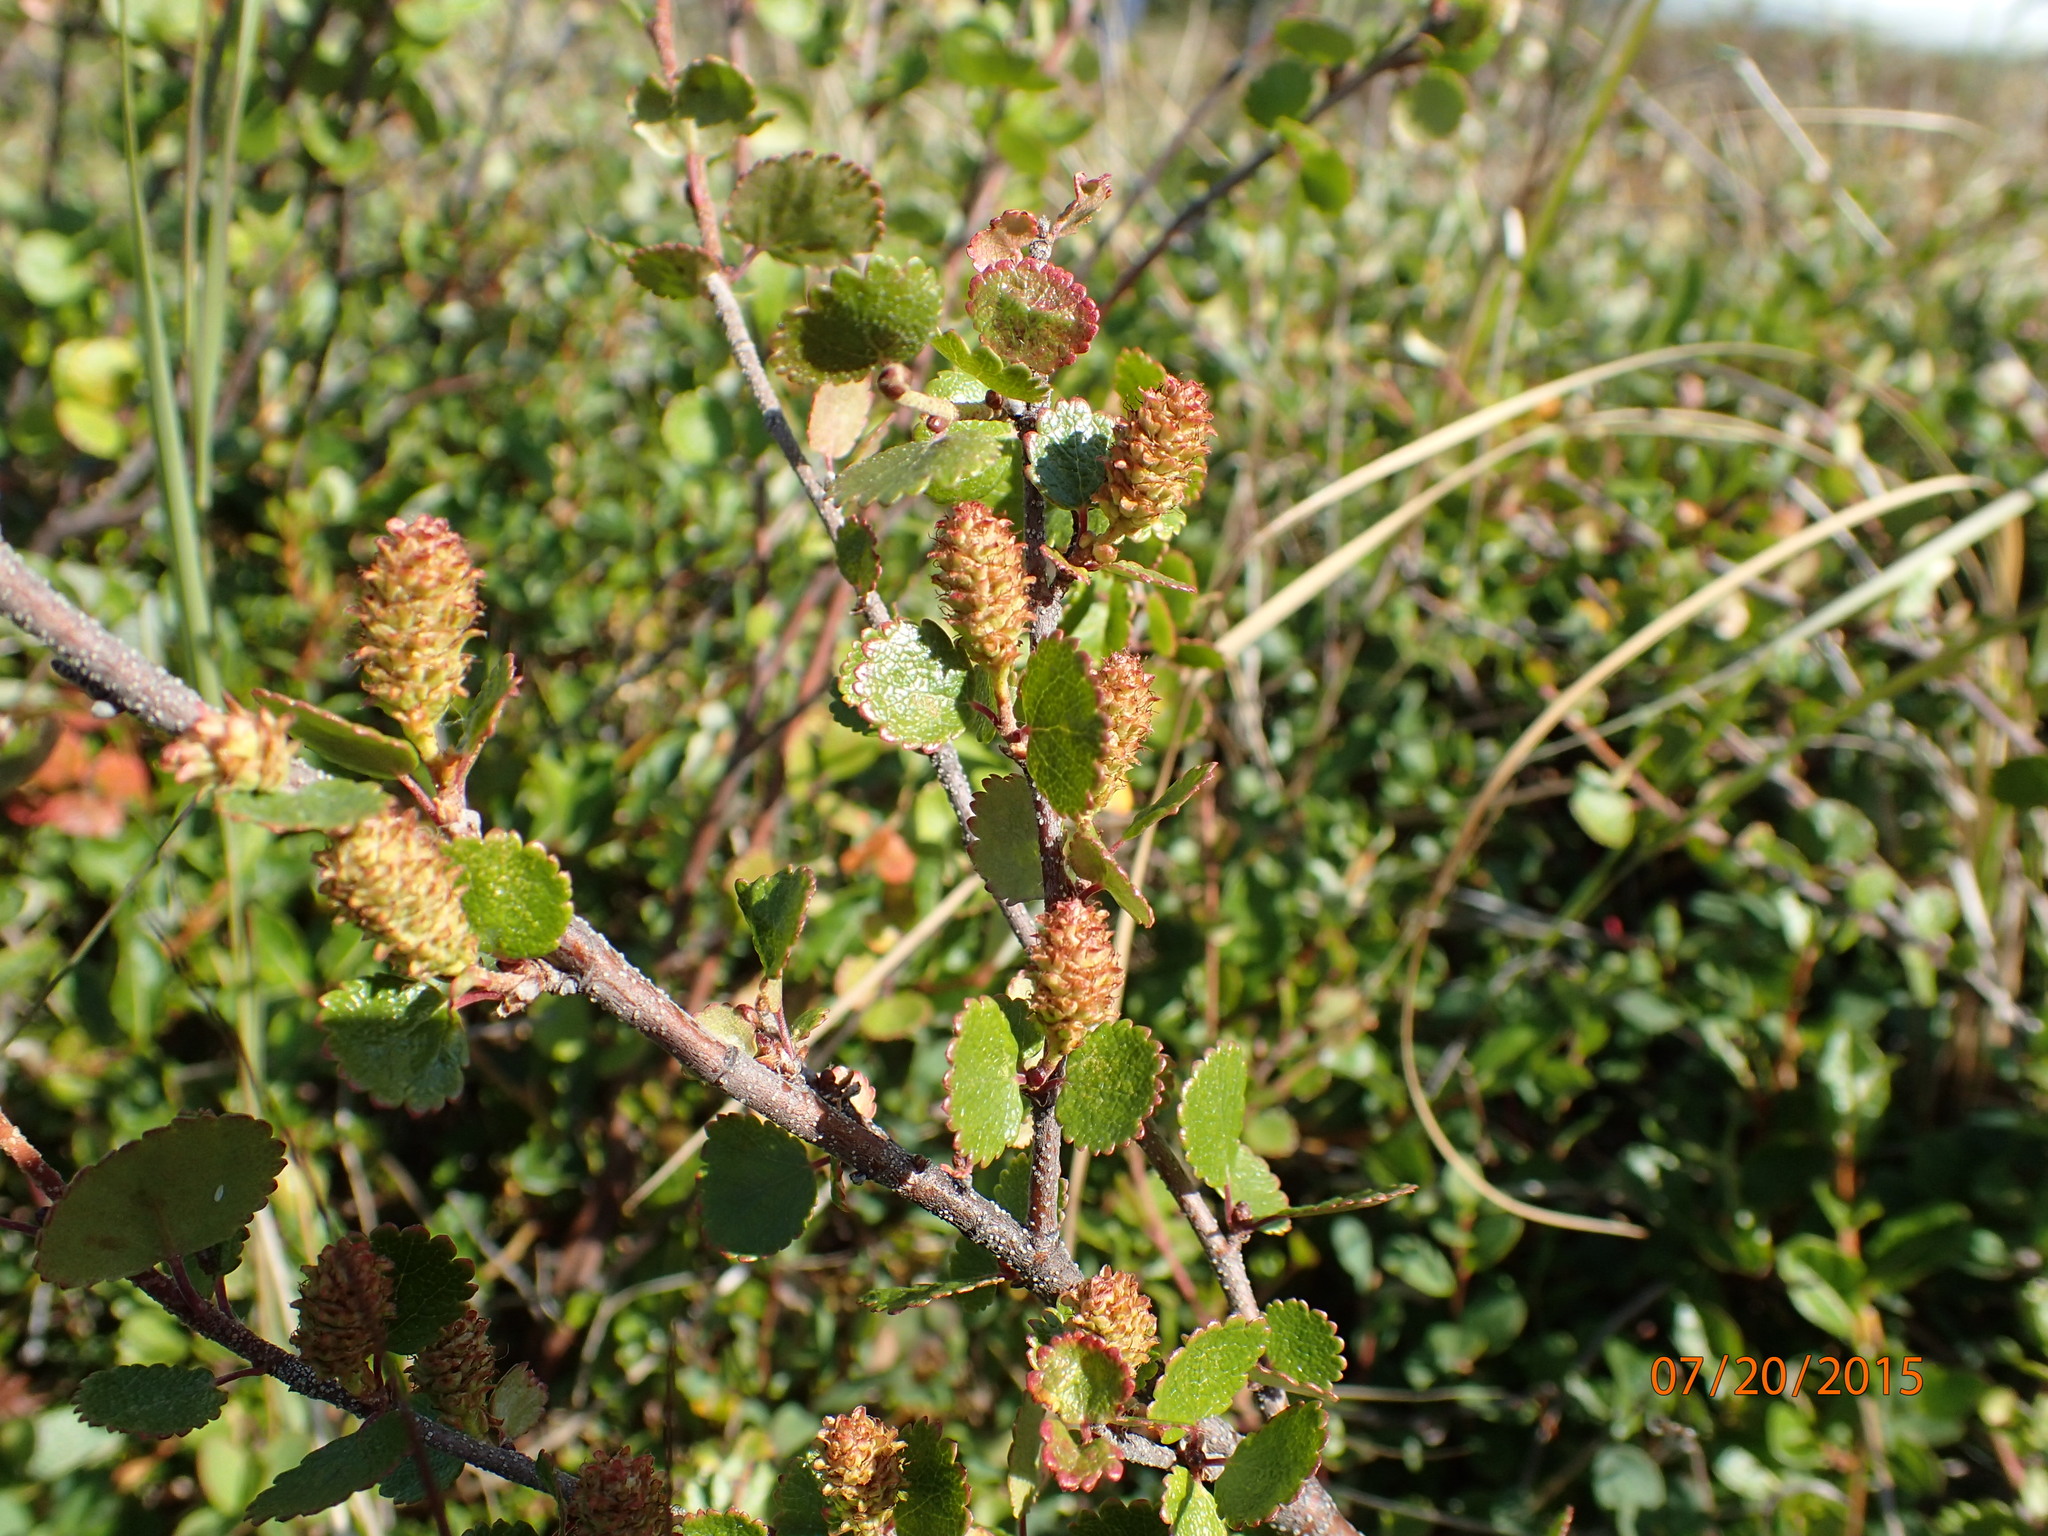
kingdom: Plantae
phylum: Tracheophyta
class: Magnoliopsida
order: Fagales
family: Betulaceae
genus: Betula
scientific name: Betula nana
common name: Arctic dwarf birch
